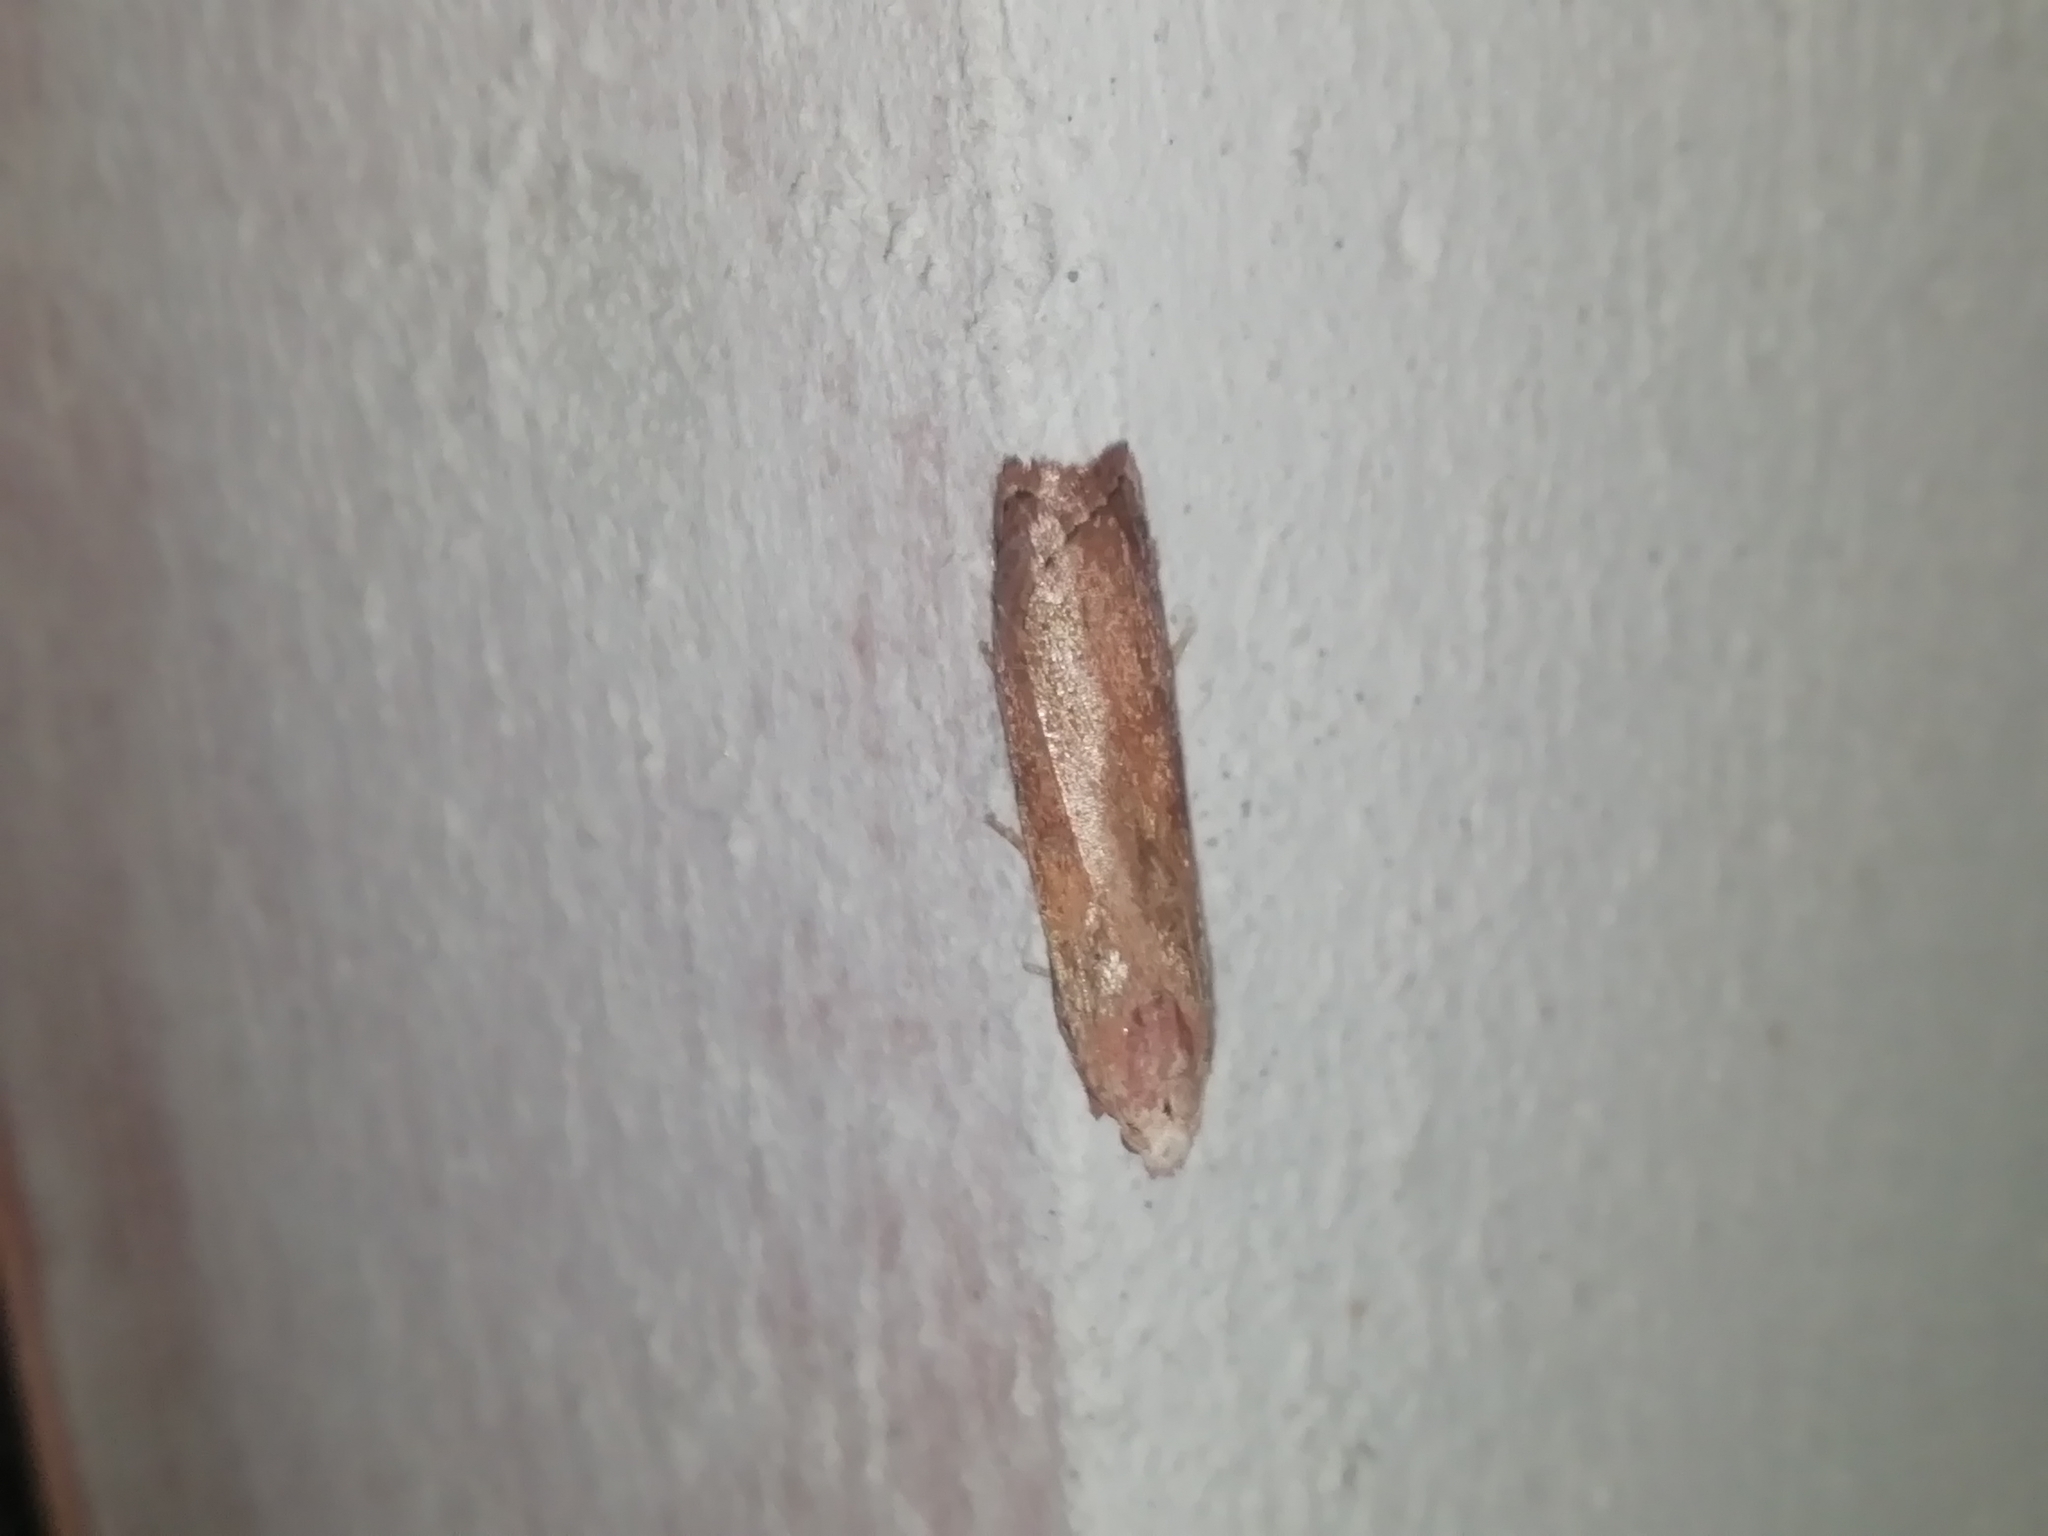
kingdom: Animalia
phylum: Arthropoda
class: Insecta
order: Lepidoptera
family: Pyralidae
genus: Aphomia
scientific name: Aphomia sociella
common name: Bee moth
